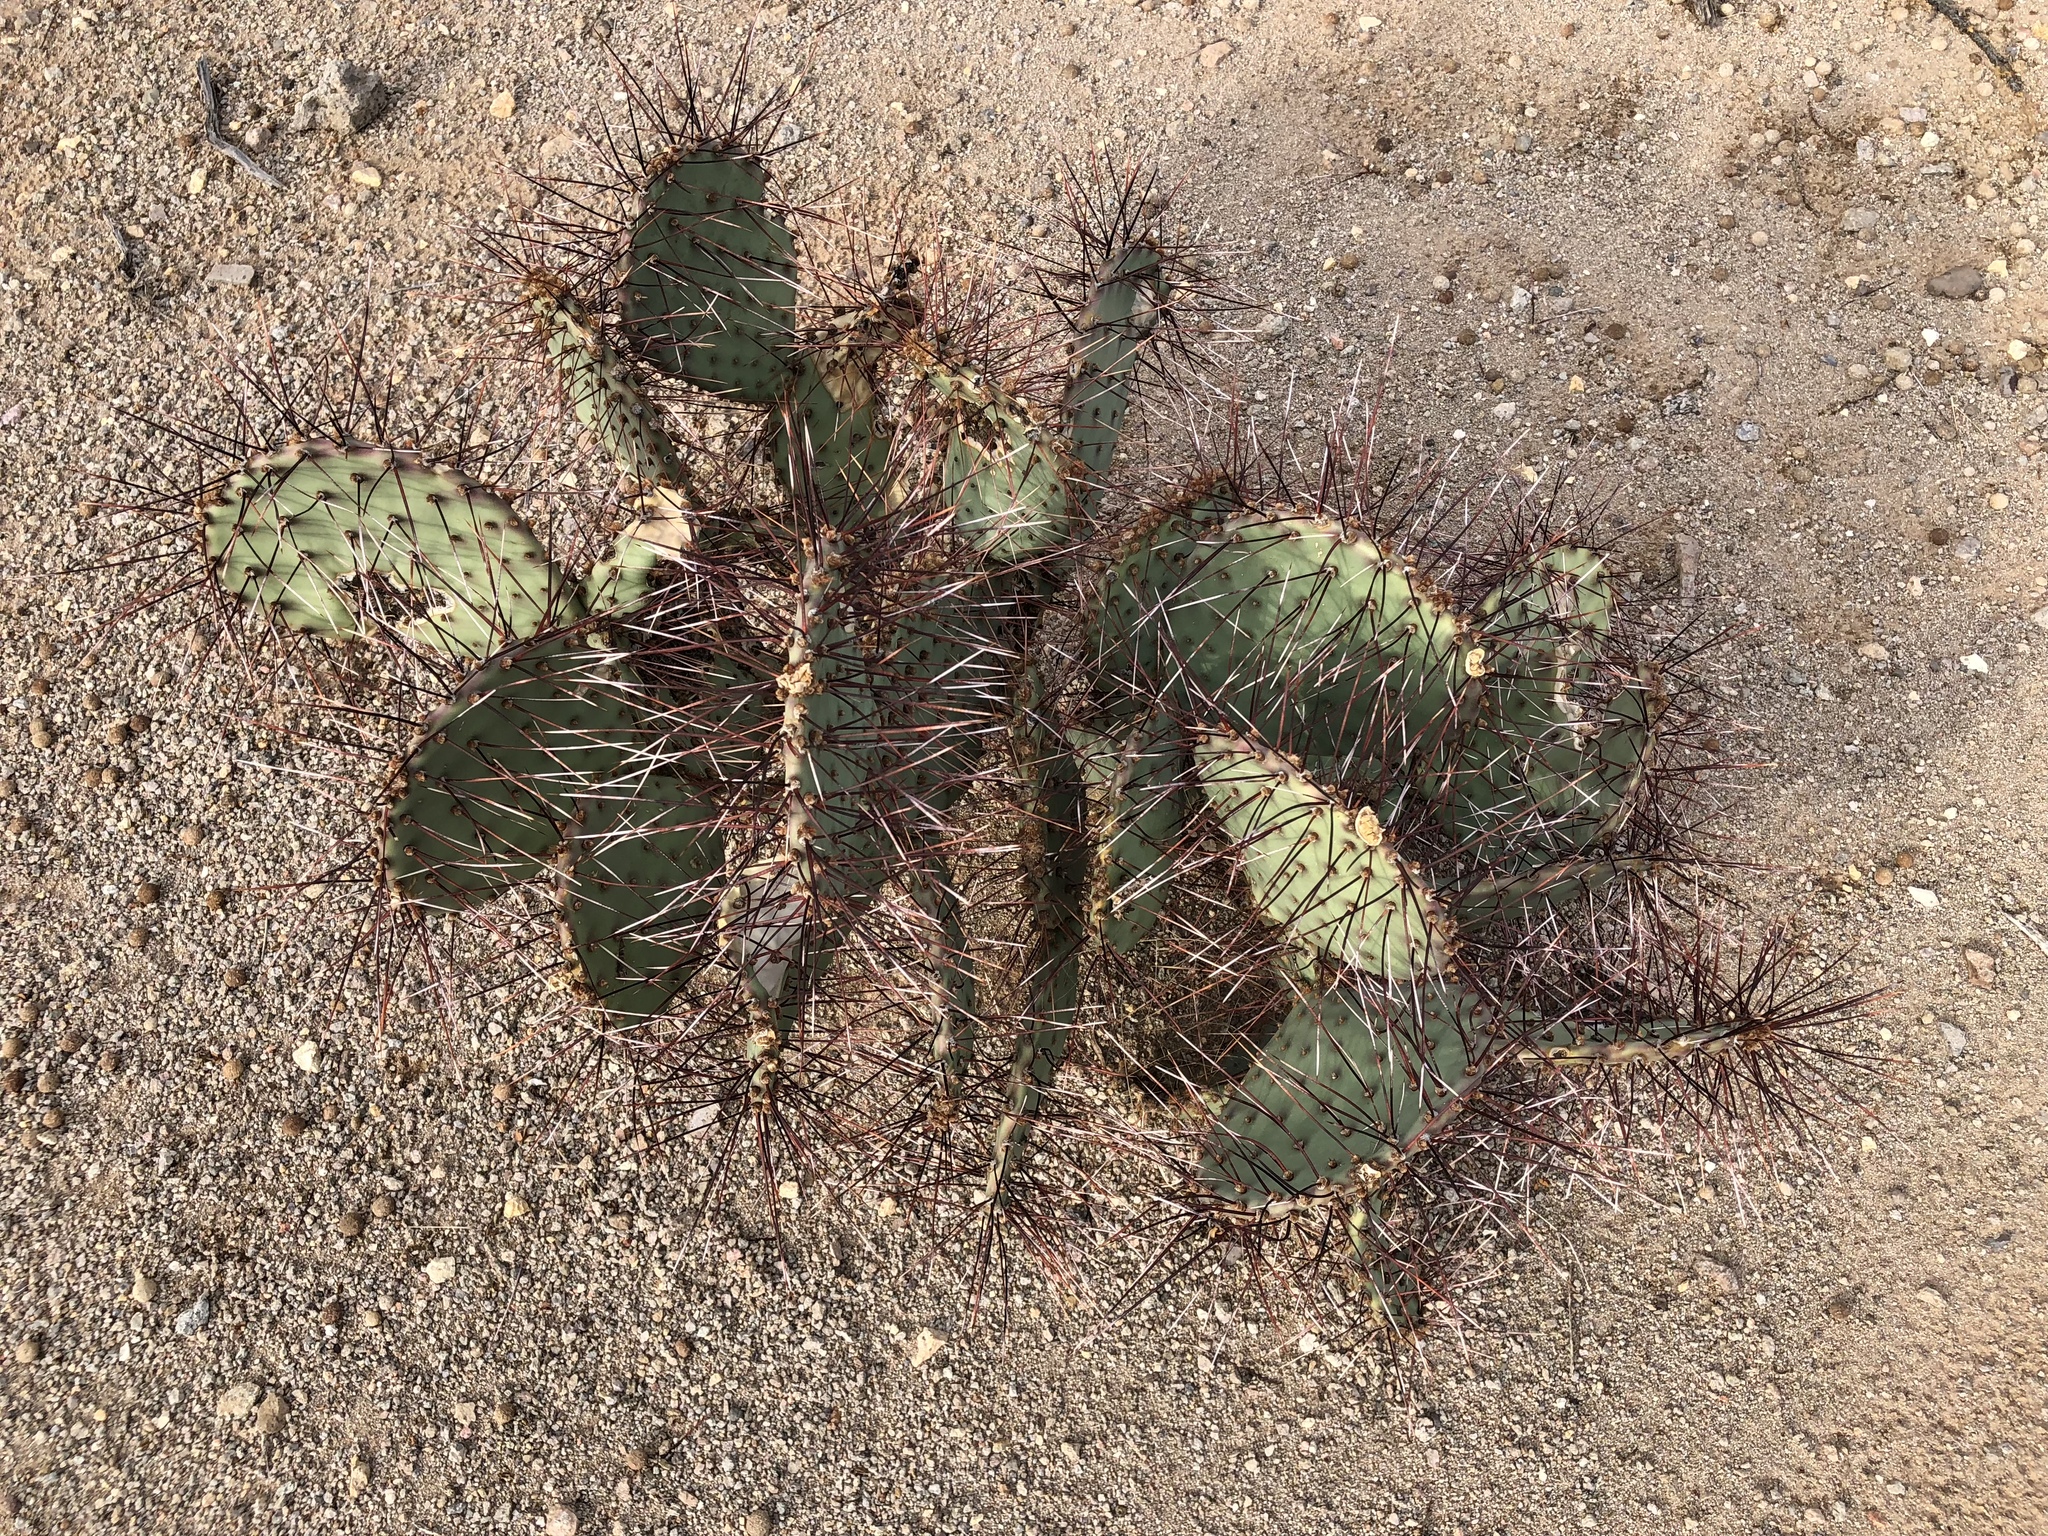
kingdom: Plantae
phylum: Tracheophyta
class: Magnoliopsida
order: Caryophyllales
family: Cactaceae
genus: Opuntia
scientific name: Opuntia macrocentra
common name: Purple prickly-pear
